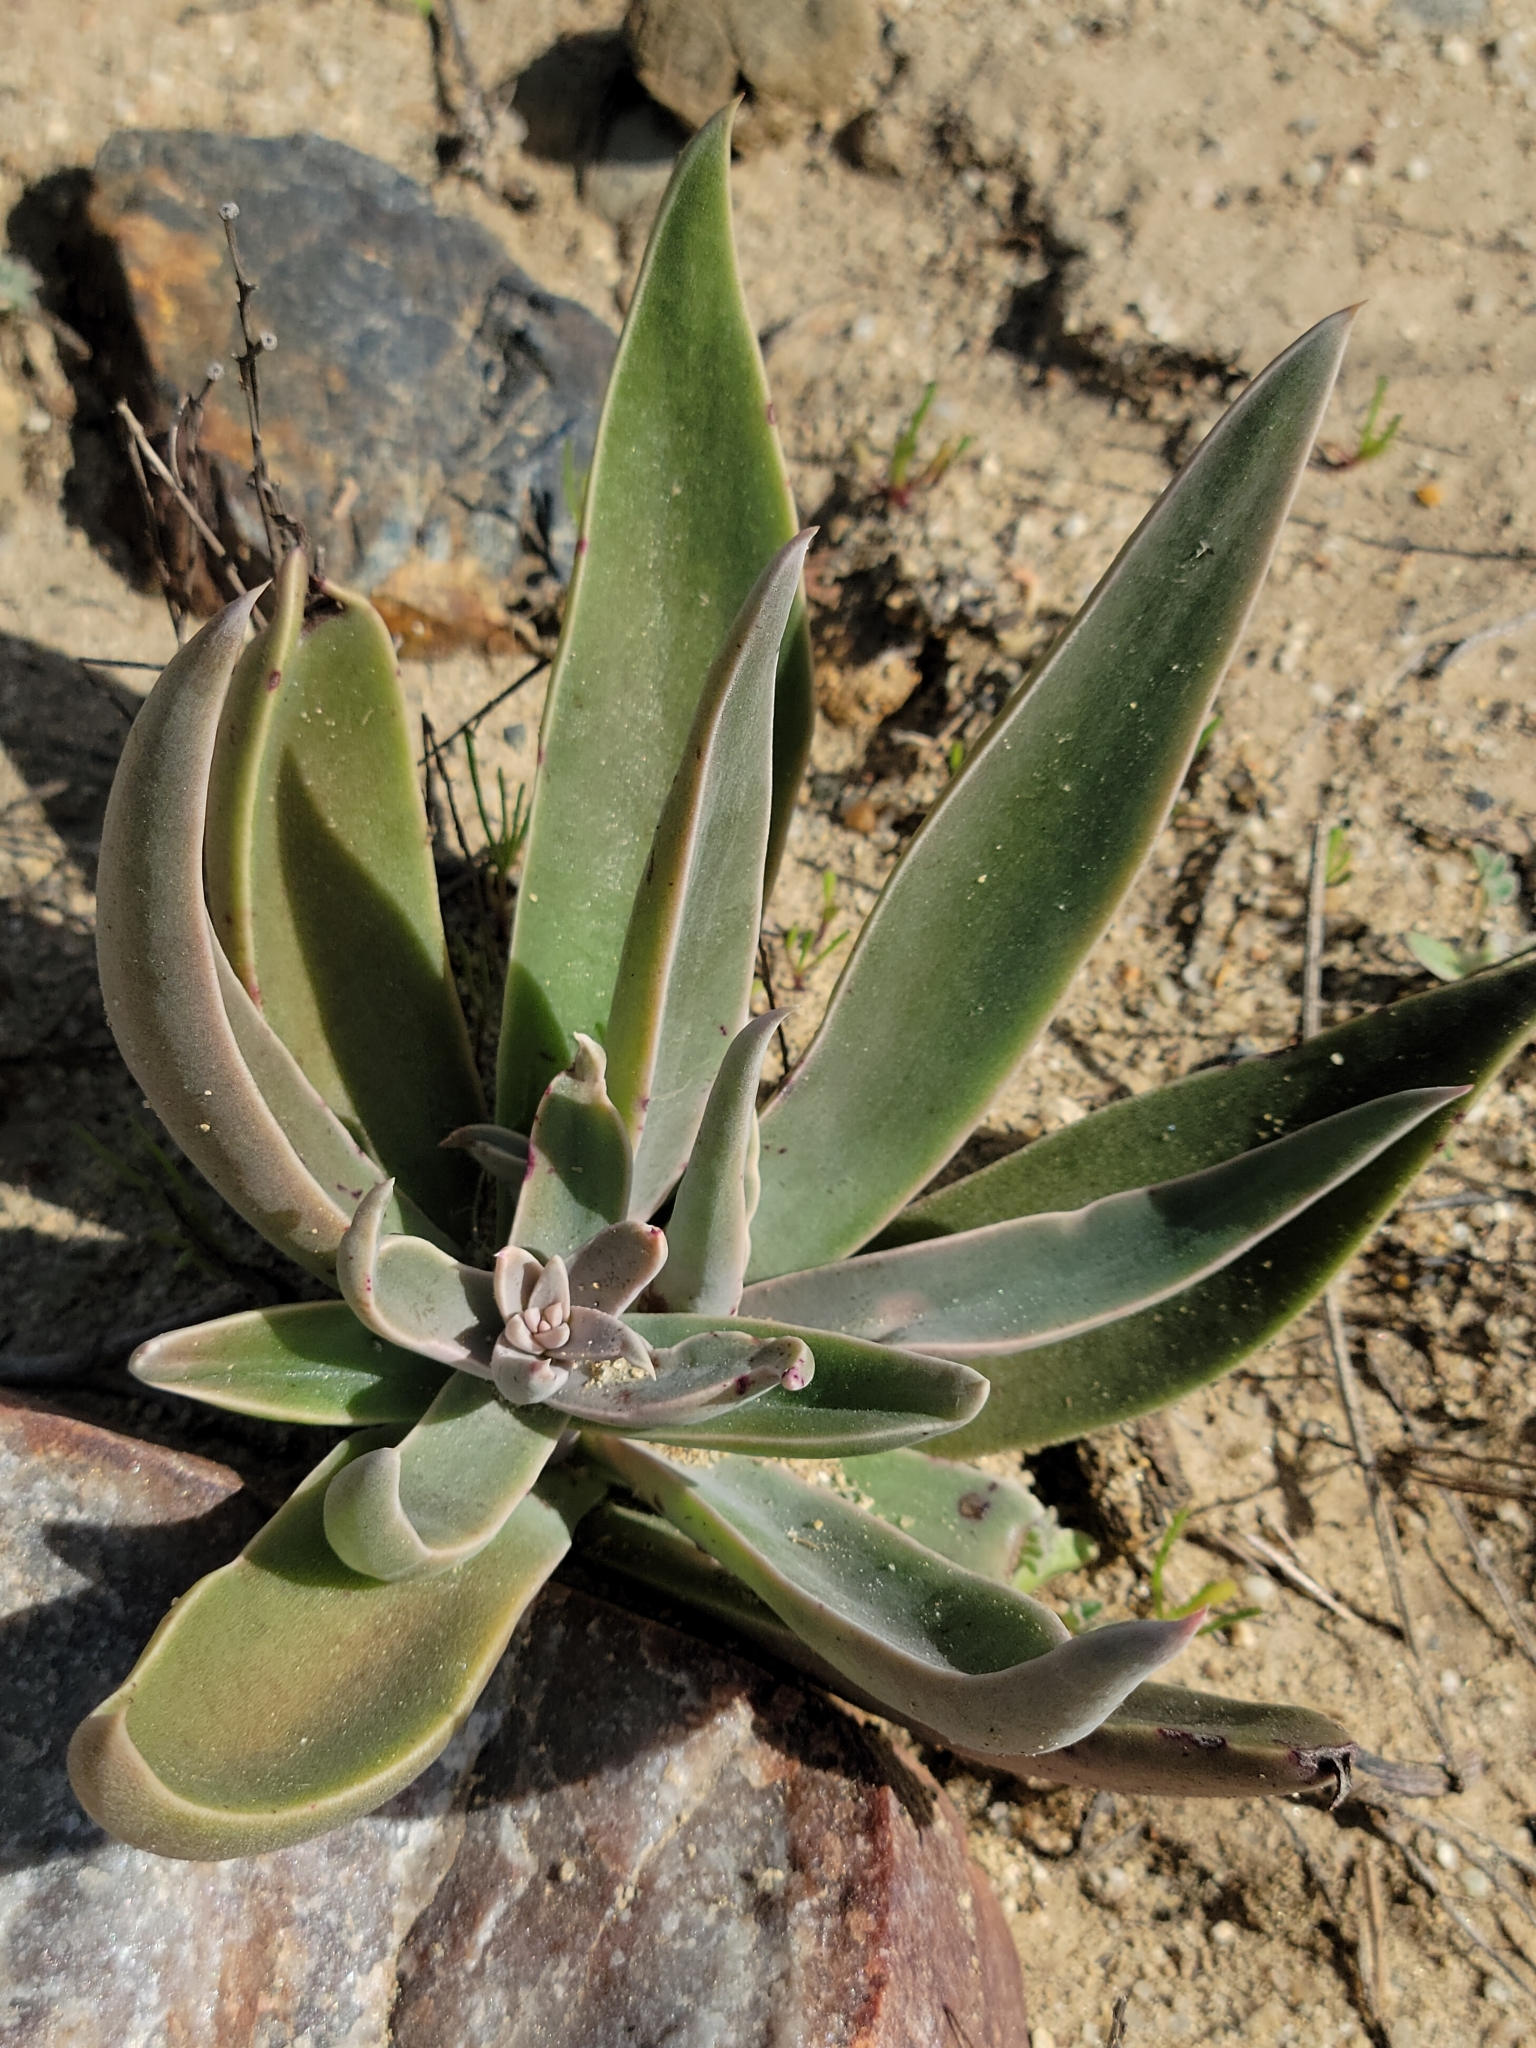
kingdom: Plantae
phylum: Tracheophyta
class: Magnoliopsida
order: Saxifragales
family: Crassulaceae
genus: Dudleya
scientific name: Dudleya lanceolata
